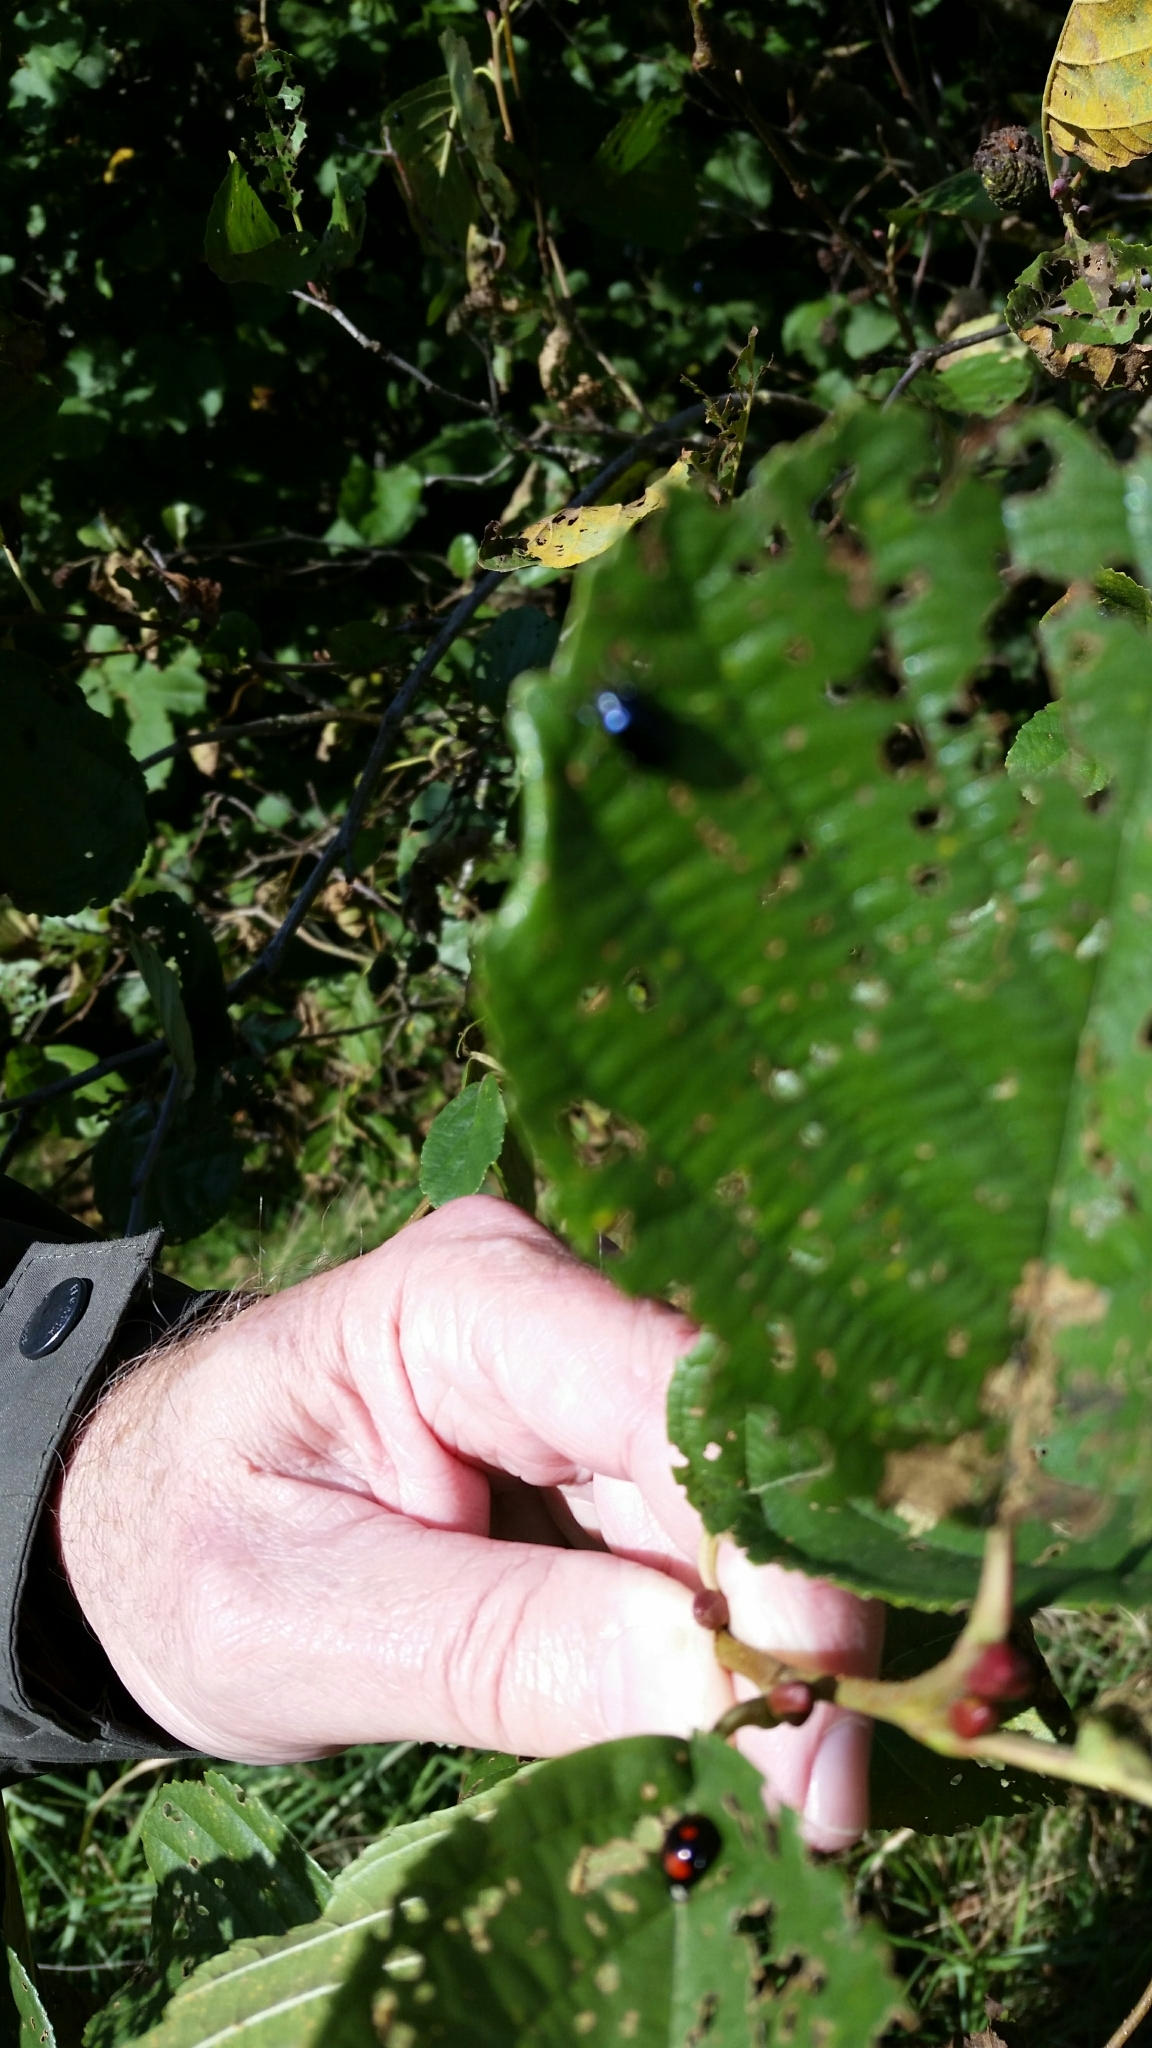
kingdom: Animalia
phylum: Arthropoda
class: Insecta
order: Coleoptera
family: Chrysomelidae
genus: Agelastica
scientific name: Agelastica alni
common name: Alder leaf beetle
